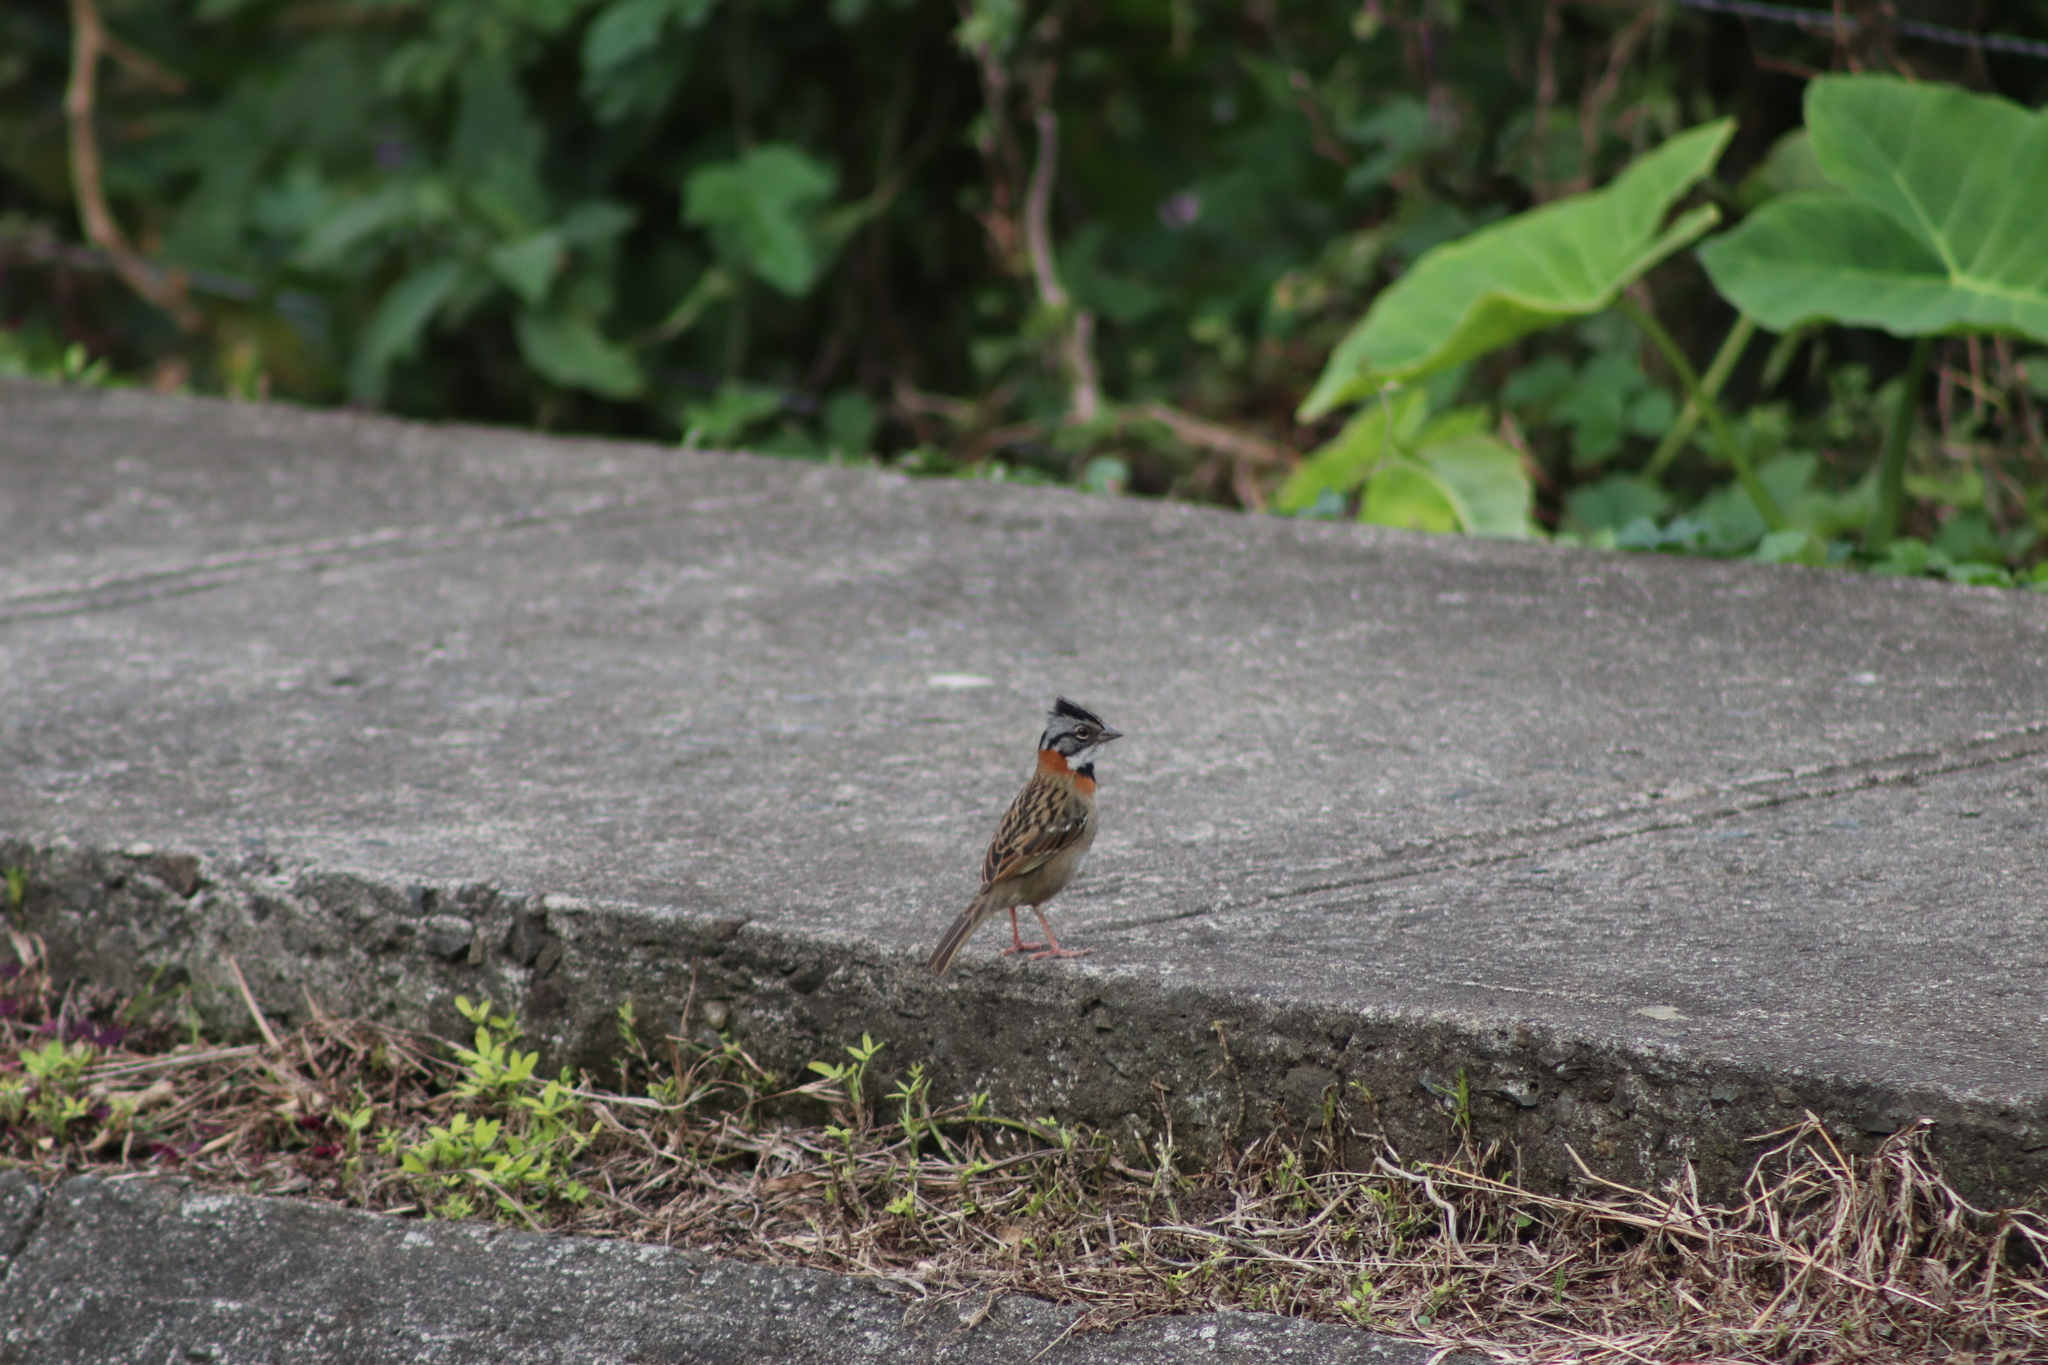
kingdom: Animalia
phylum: Chordata
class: Aves
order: Passeriformes
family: Passerellidae
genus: Zonotrichia
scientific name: Zonotrichia capensis
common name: Rufous-collared sparrow
